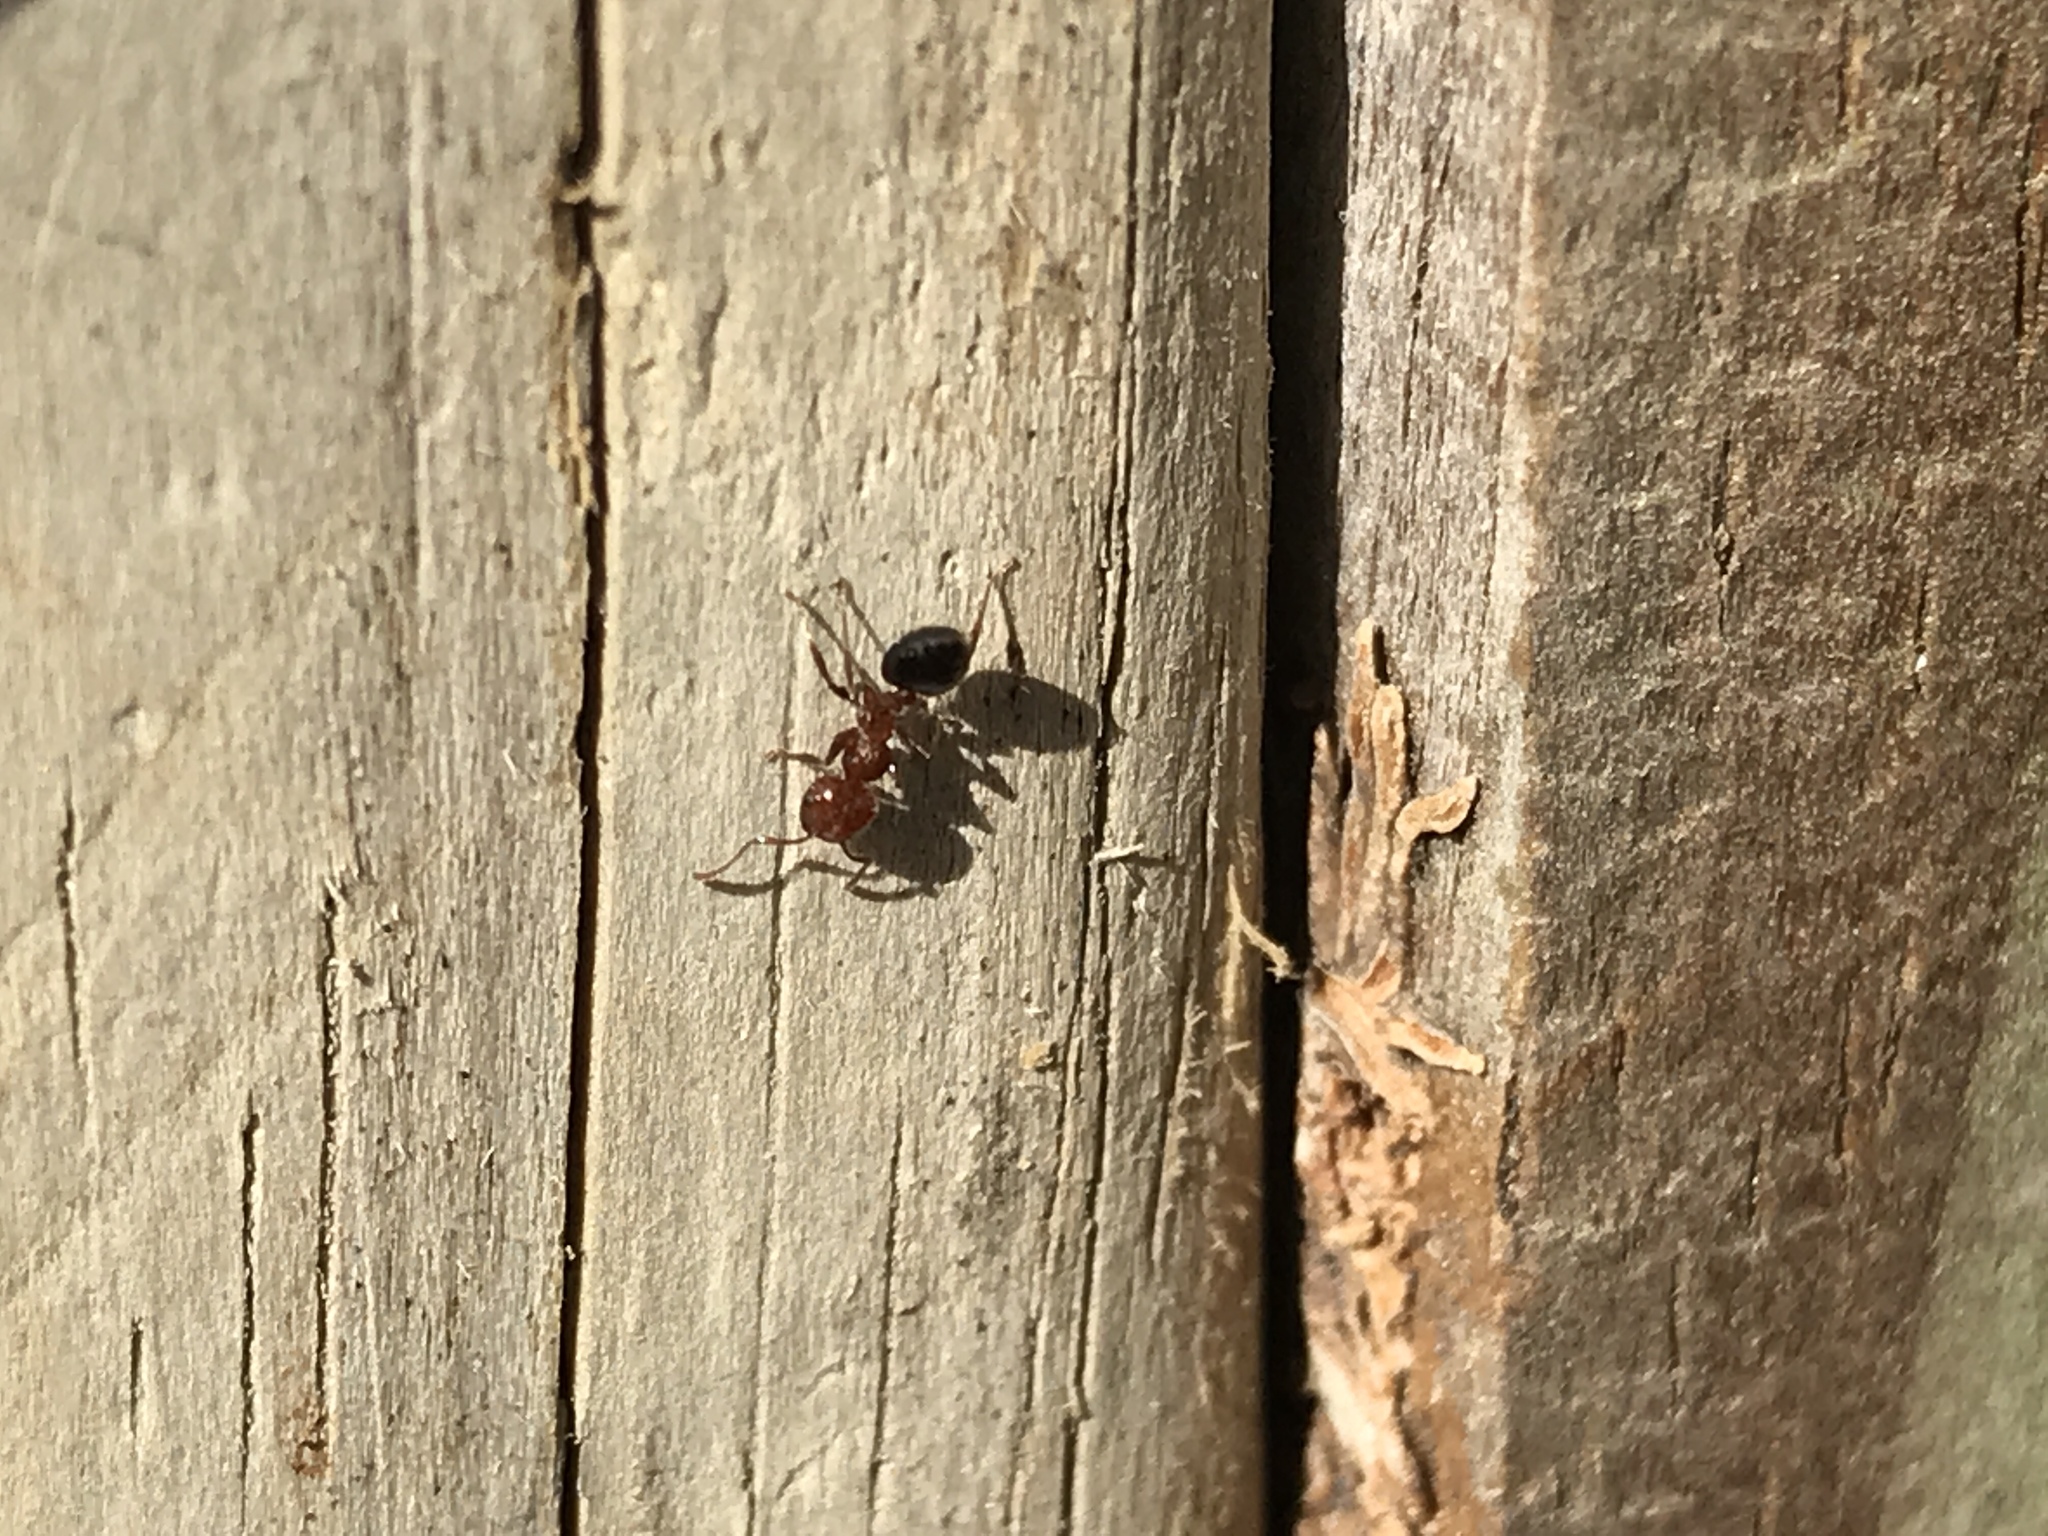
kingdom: Animalia
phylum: Arthropoda
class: Insecta
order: Hymenoptera
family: Formicidae
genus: Crematogaster
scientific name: Crematogaster laeviuscula
